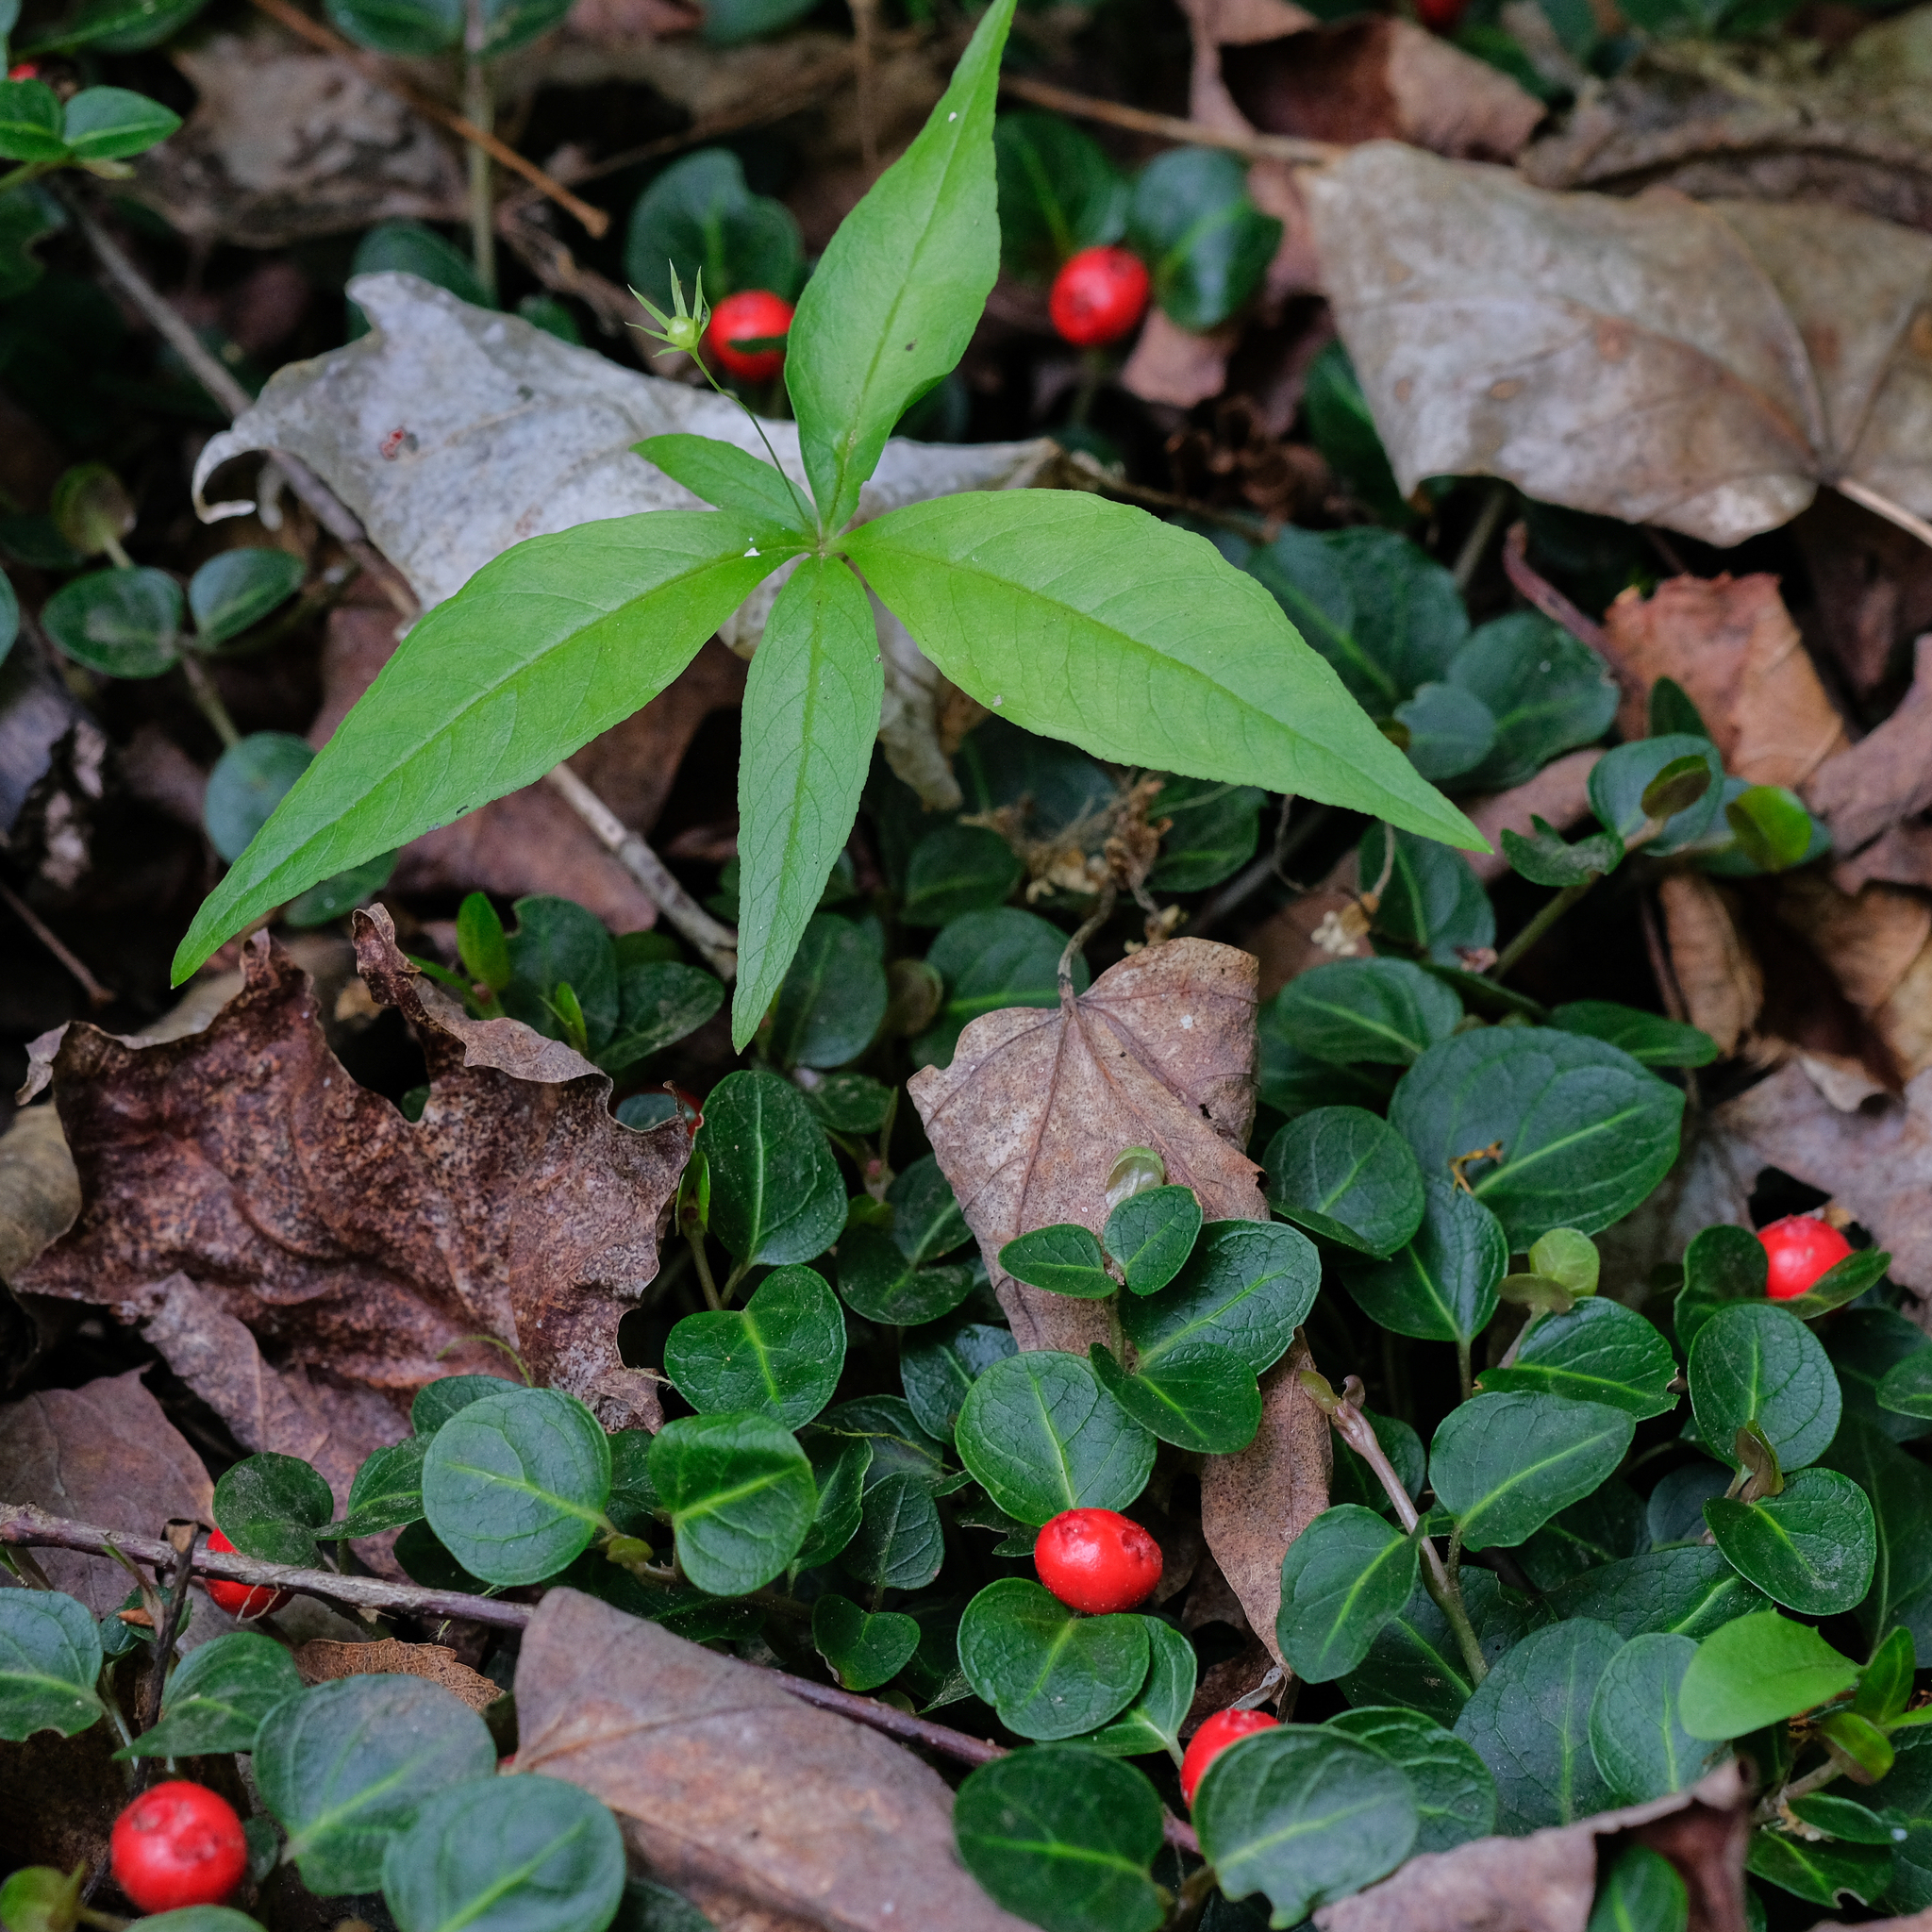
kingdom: Plantae
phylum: Tracheophyta
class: Magnoliopsida
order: Gentianales
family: Rubiaceae
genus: Mitchella
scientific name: Mitchella repens
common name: Partridge-berry
